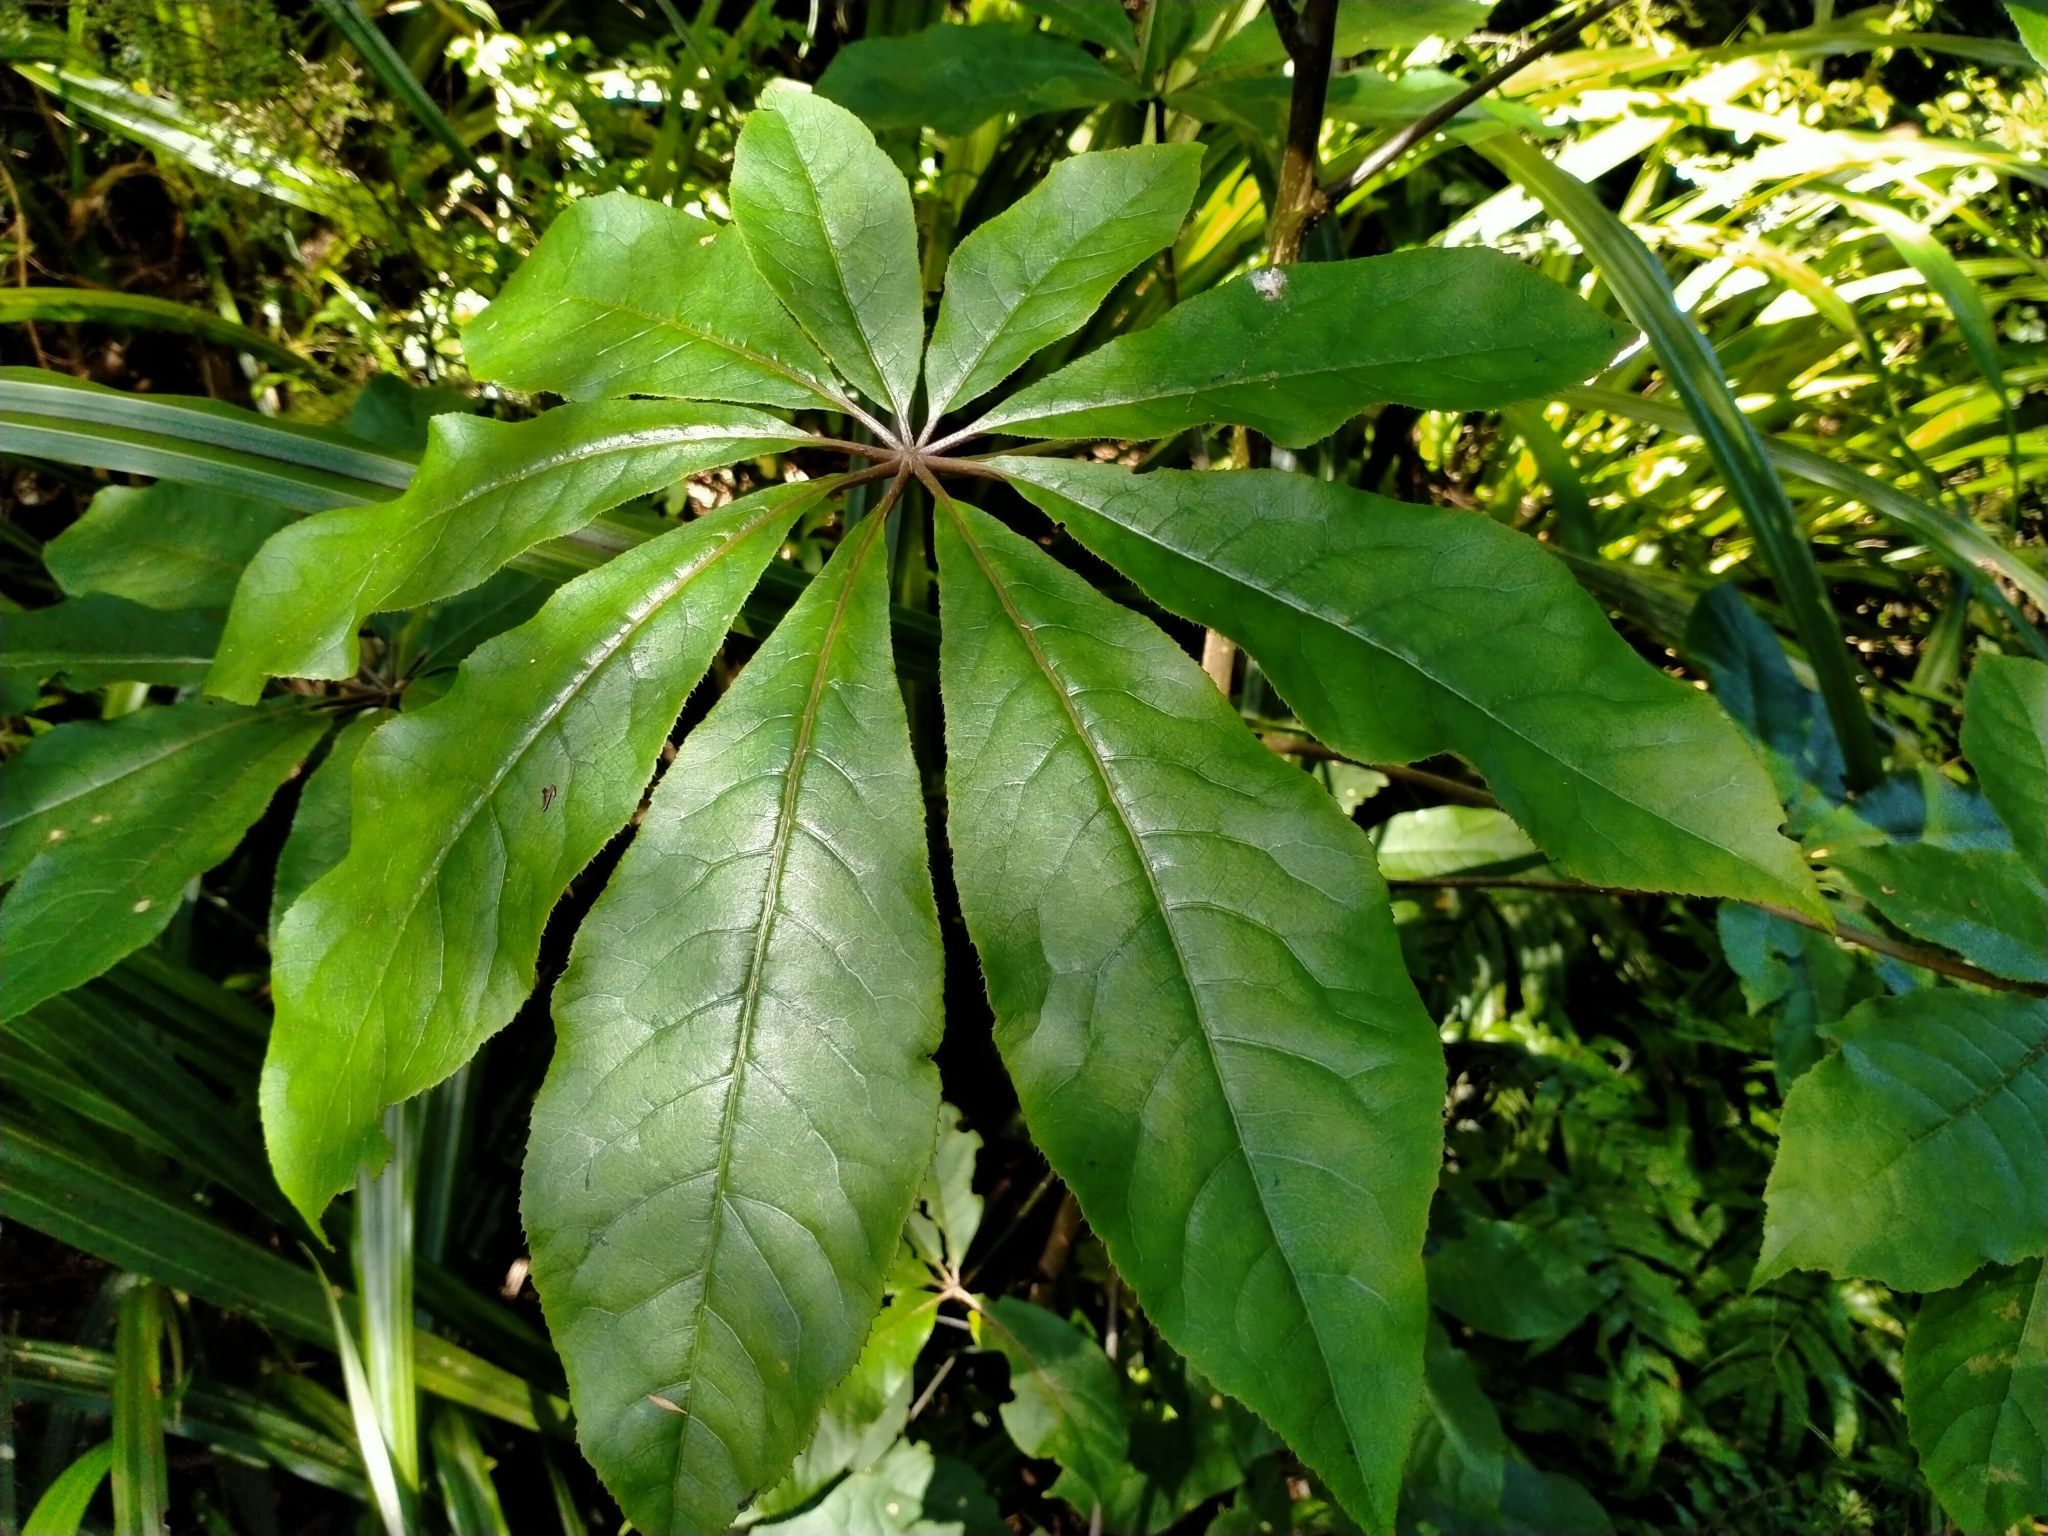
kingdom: Plantae
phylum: Tracheophyta
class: Magnoliopsida
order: Apiales
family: Araliaceae
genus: Schefflera
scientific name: Schefflera digitata
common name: Pate
